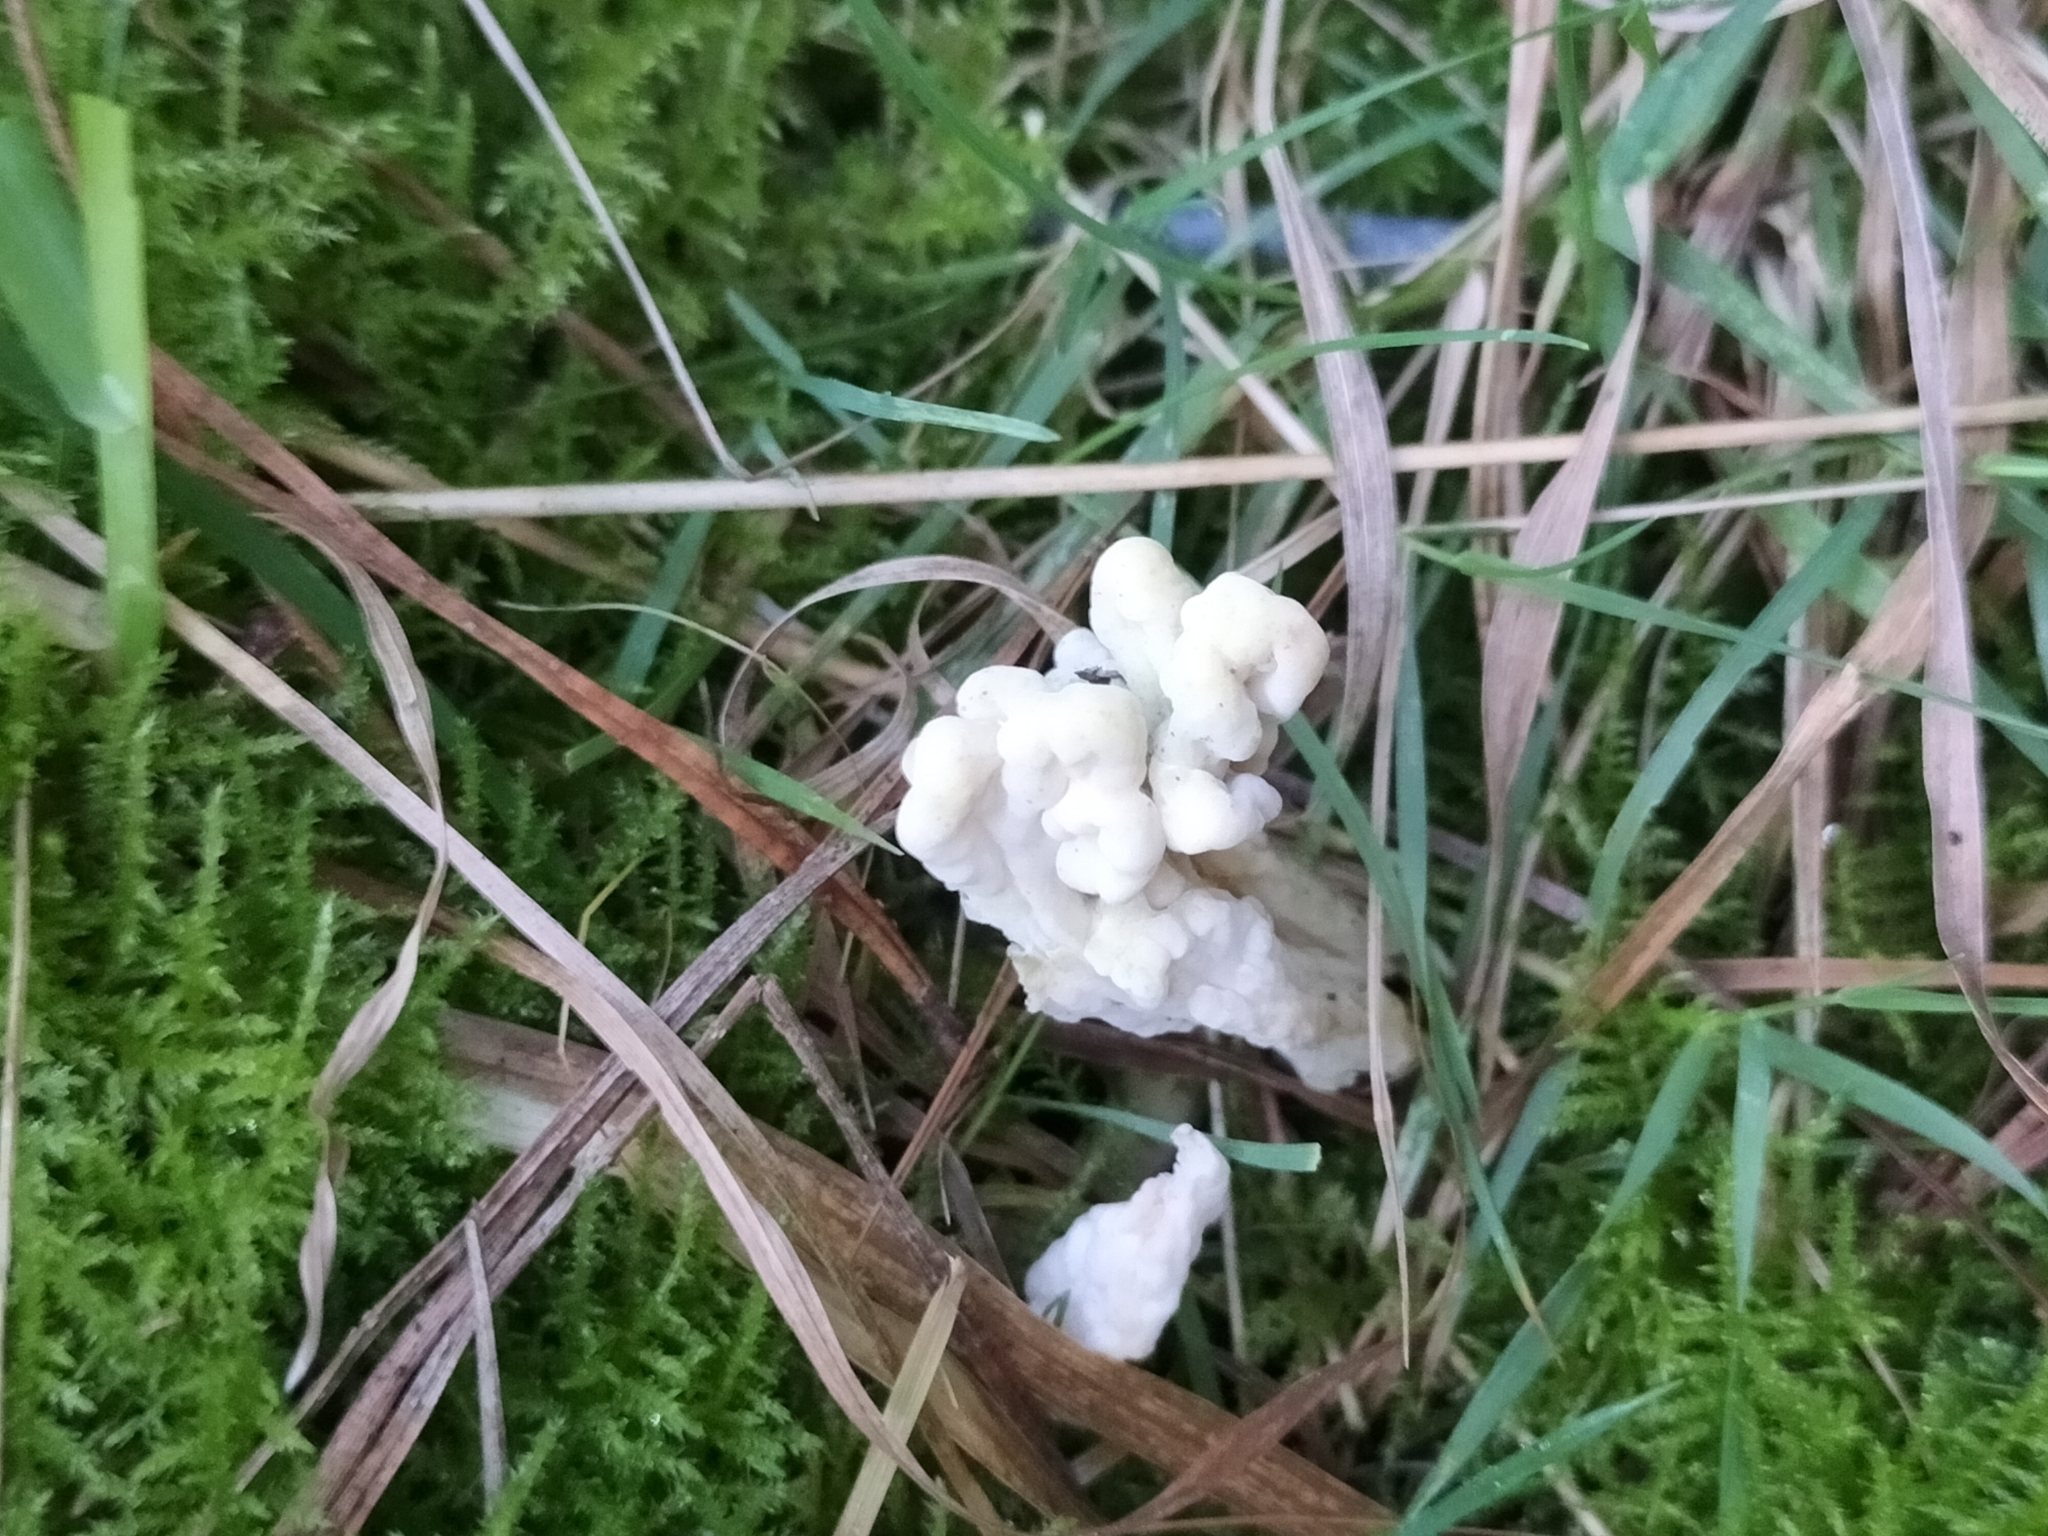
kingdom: Fungi
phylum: Basidiomycota
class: Agaricomycetes
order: Cantharellales
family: Hydnaceae
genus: Clavulina
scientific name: Clavulina rugosa
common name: Wrinkled club
